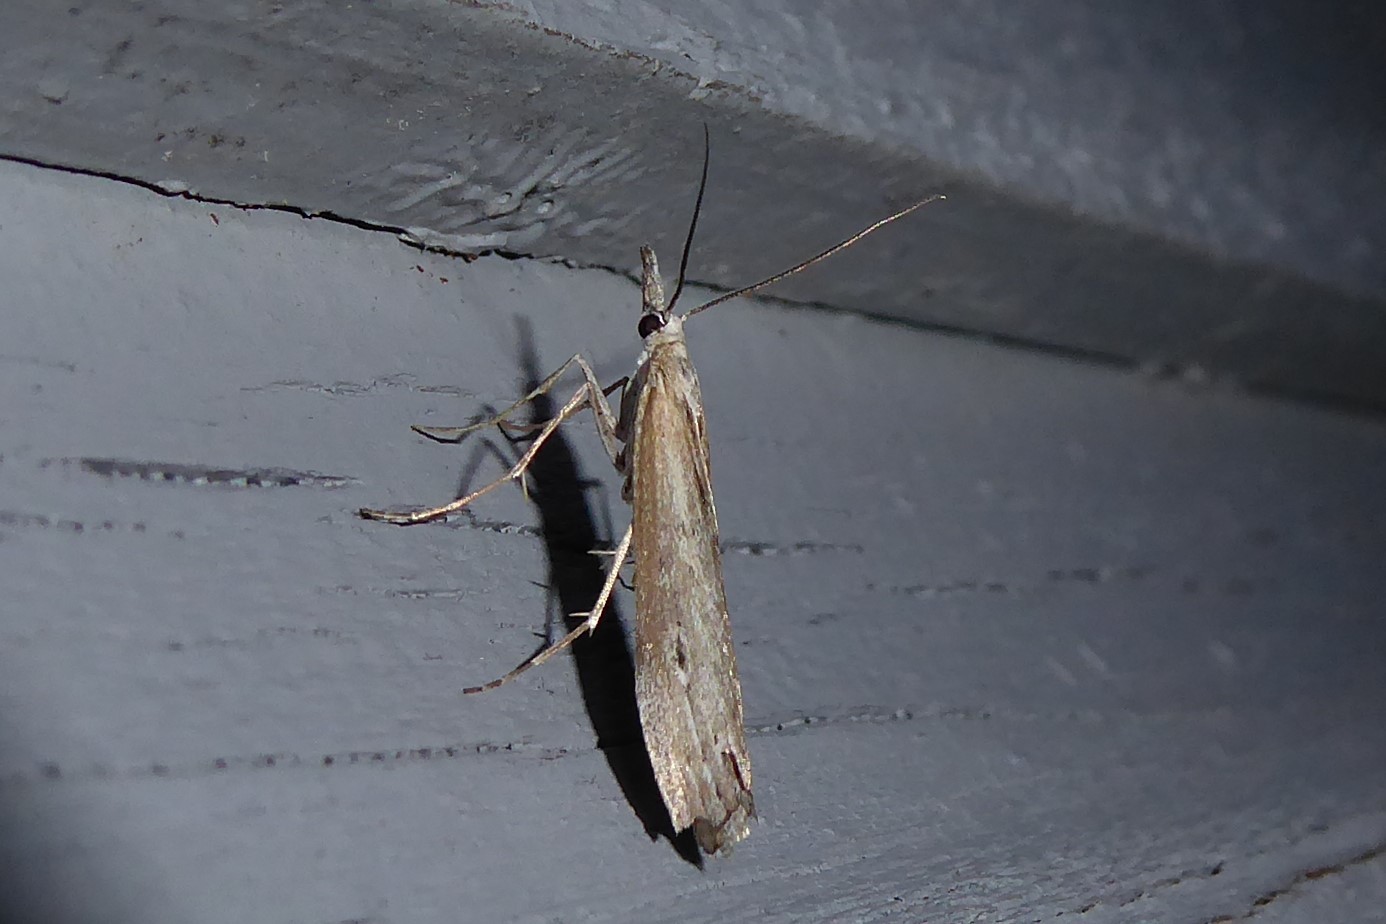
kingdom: Animalia
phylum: Arthropoda
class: Insecta
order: Lepidoptera
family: Crambidae
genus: Orocrambus
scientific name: Orocrambus cyclopicus
